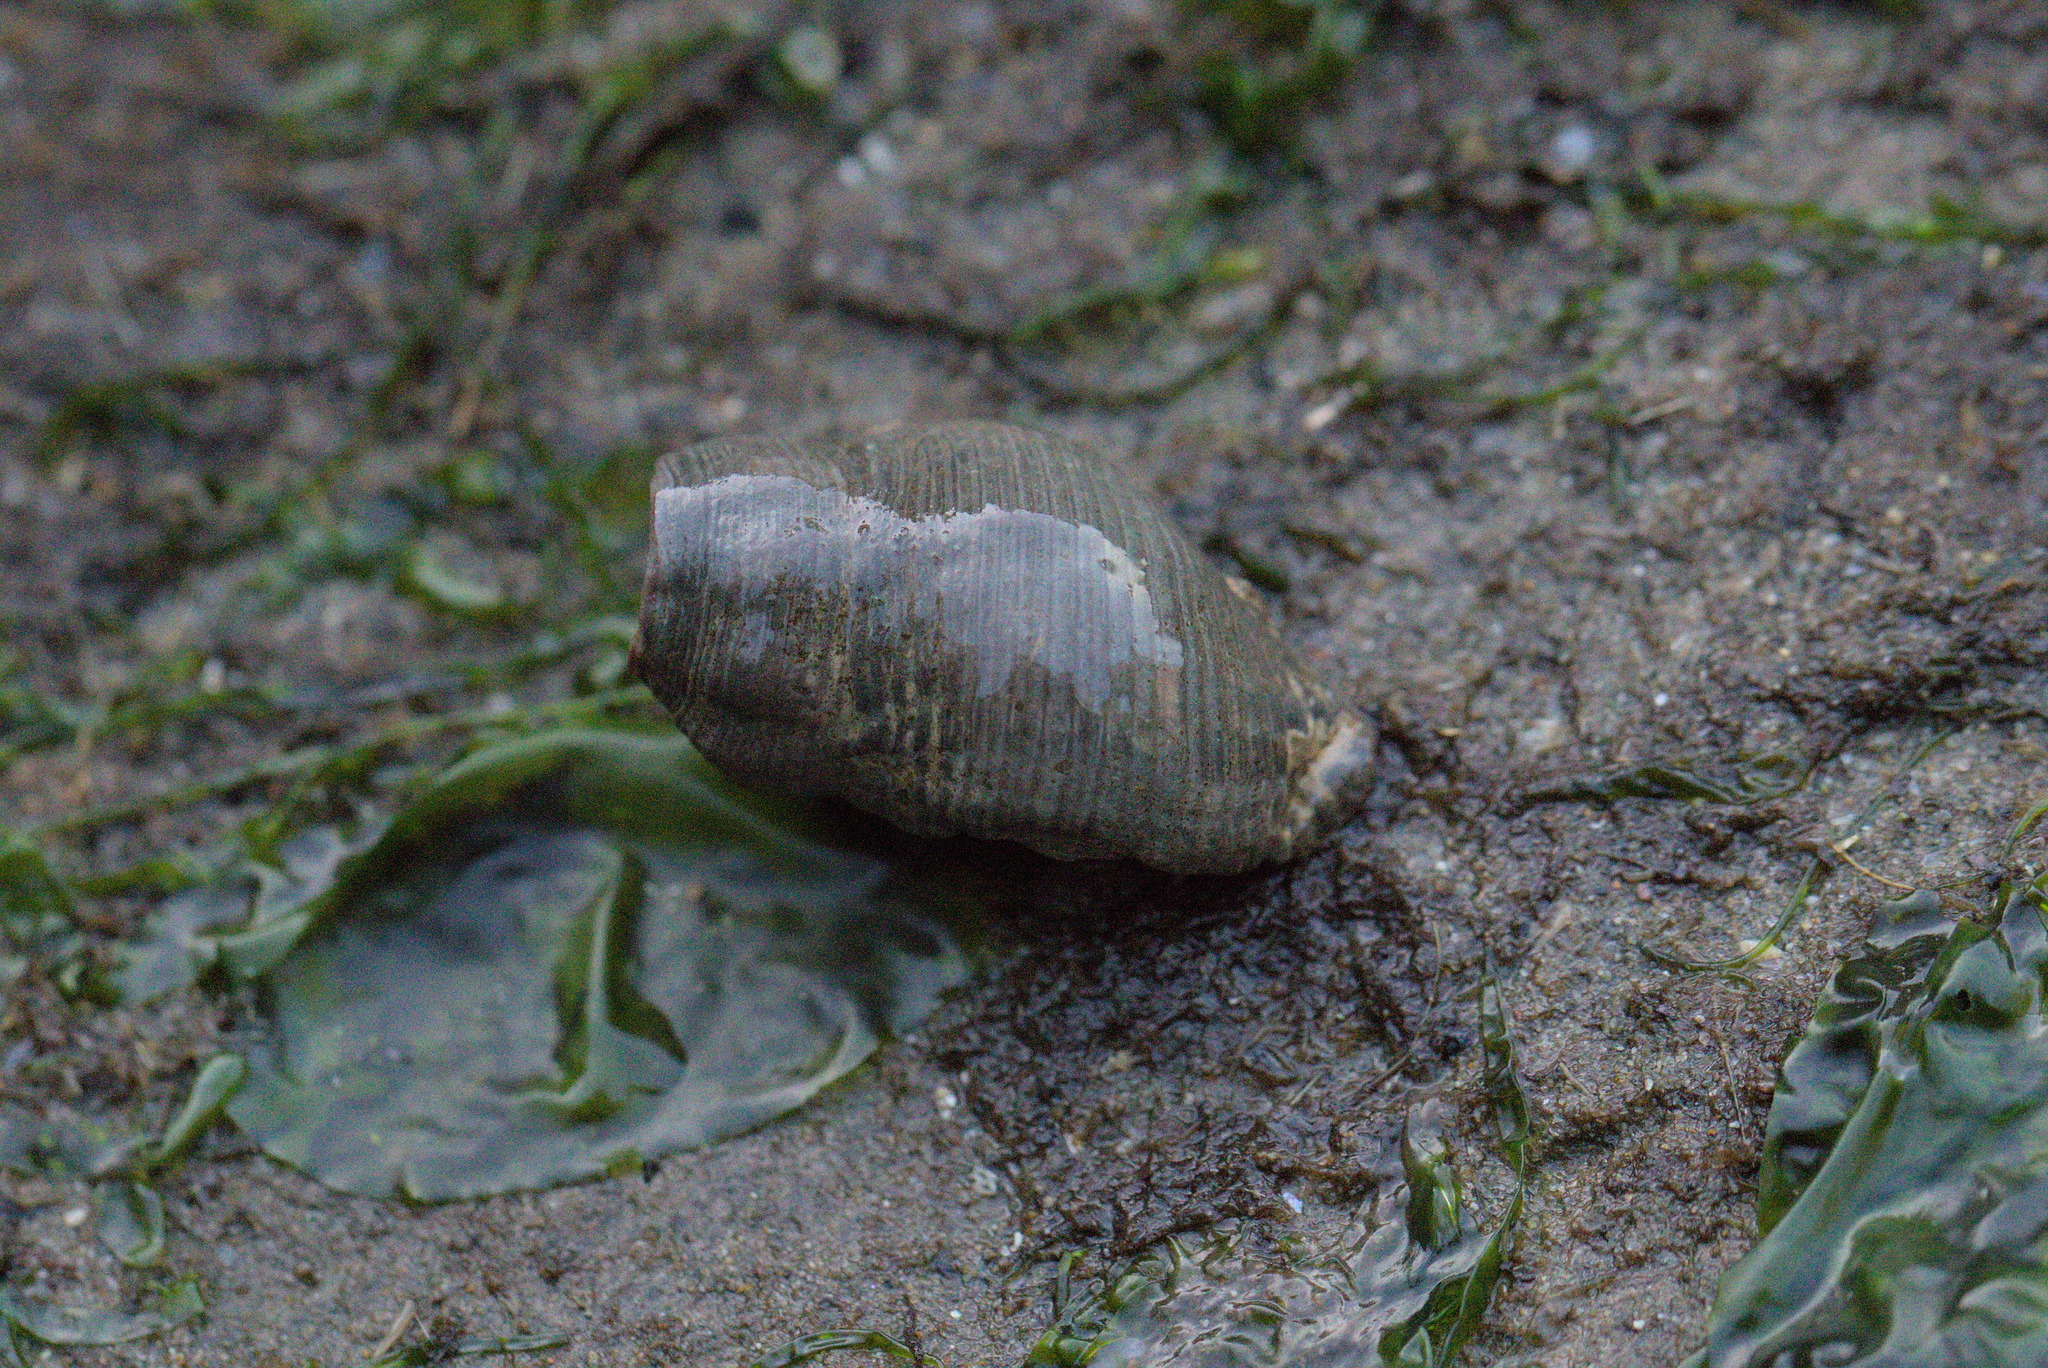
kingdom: Animalia
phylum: Arthropoda
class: Malacostraca
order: Decapoda
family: Paguridae
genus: Pagurus
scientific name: Pagurus hirsutiusculus
